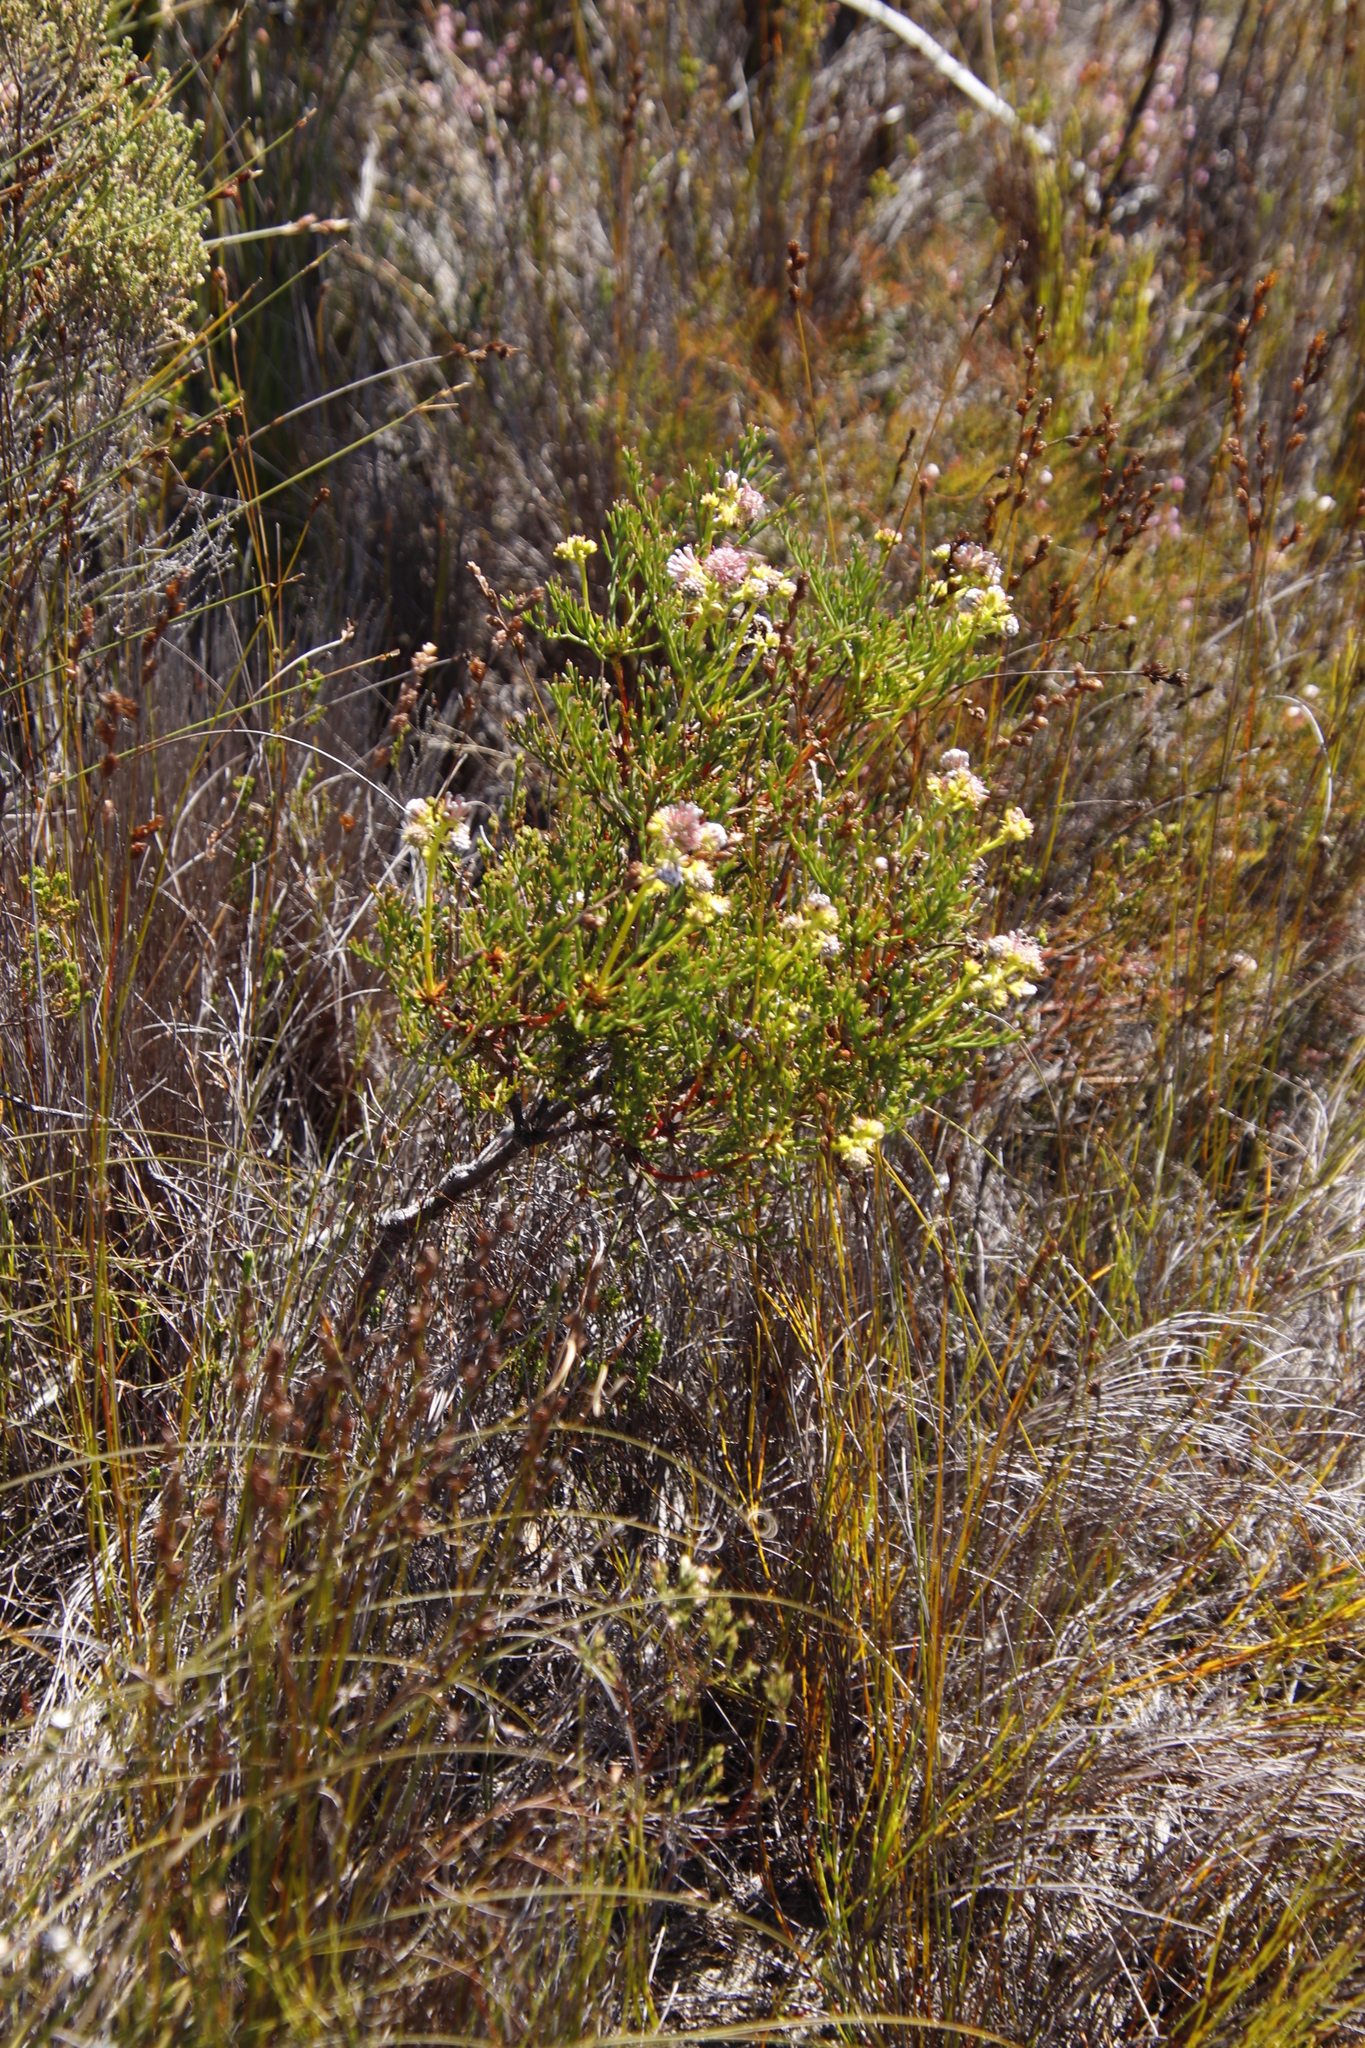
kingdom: Plantae
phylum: Tracheophyta
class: Magnoliopsida
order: Proteales
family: Proteaceae
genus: Serruria
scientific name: Serruria elongata
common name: Long-stalk spiderhead
